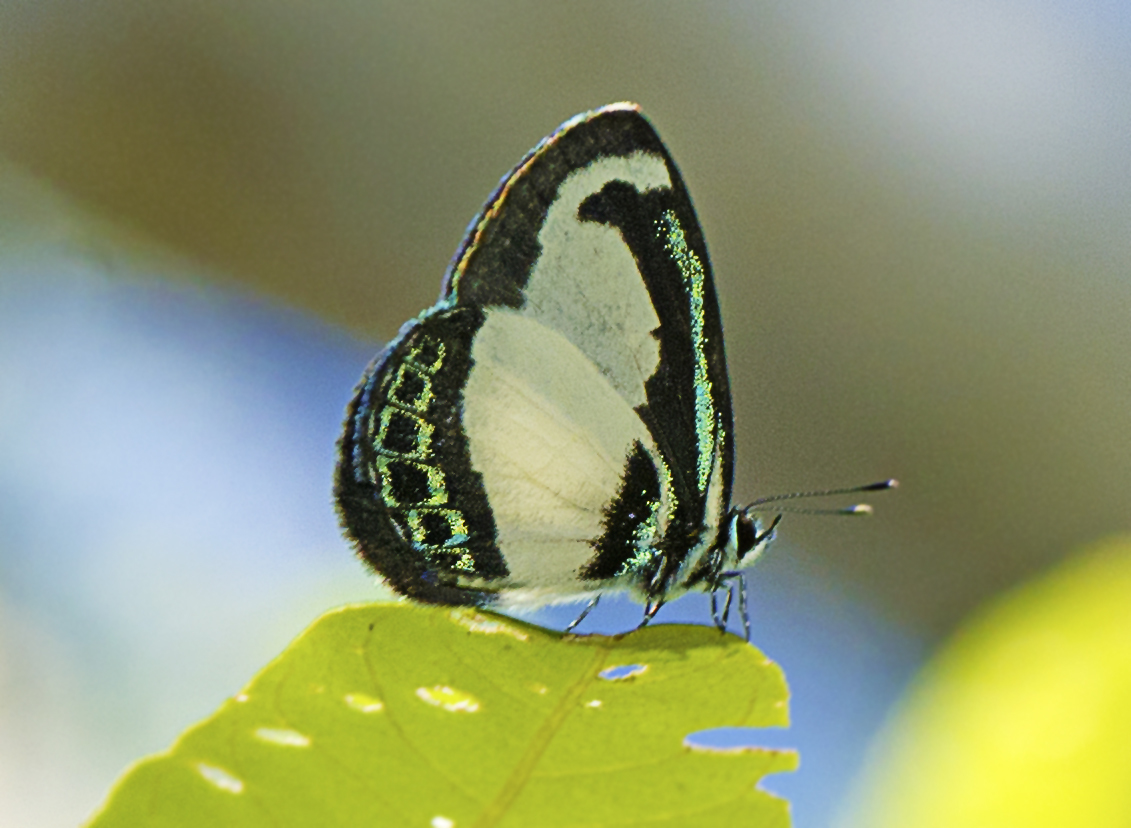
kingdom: Animalia
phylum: Arthropoda
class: Insecta
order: Lepidoptera
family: Lycaenidae
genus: Psychonotis
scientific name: Psychonotis caelius
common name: Small green banded blue
